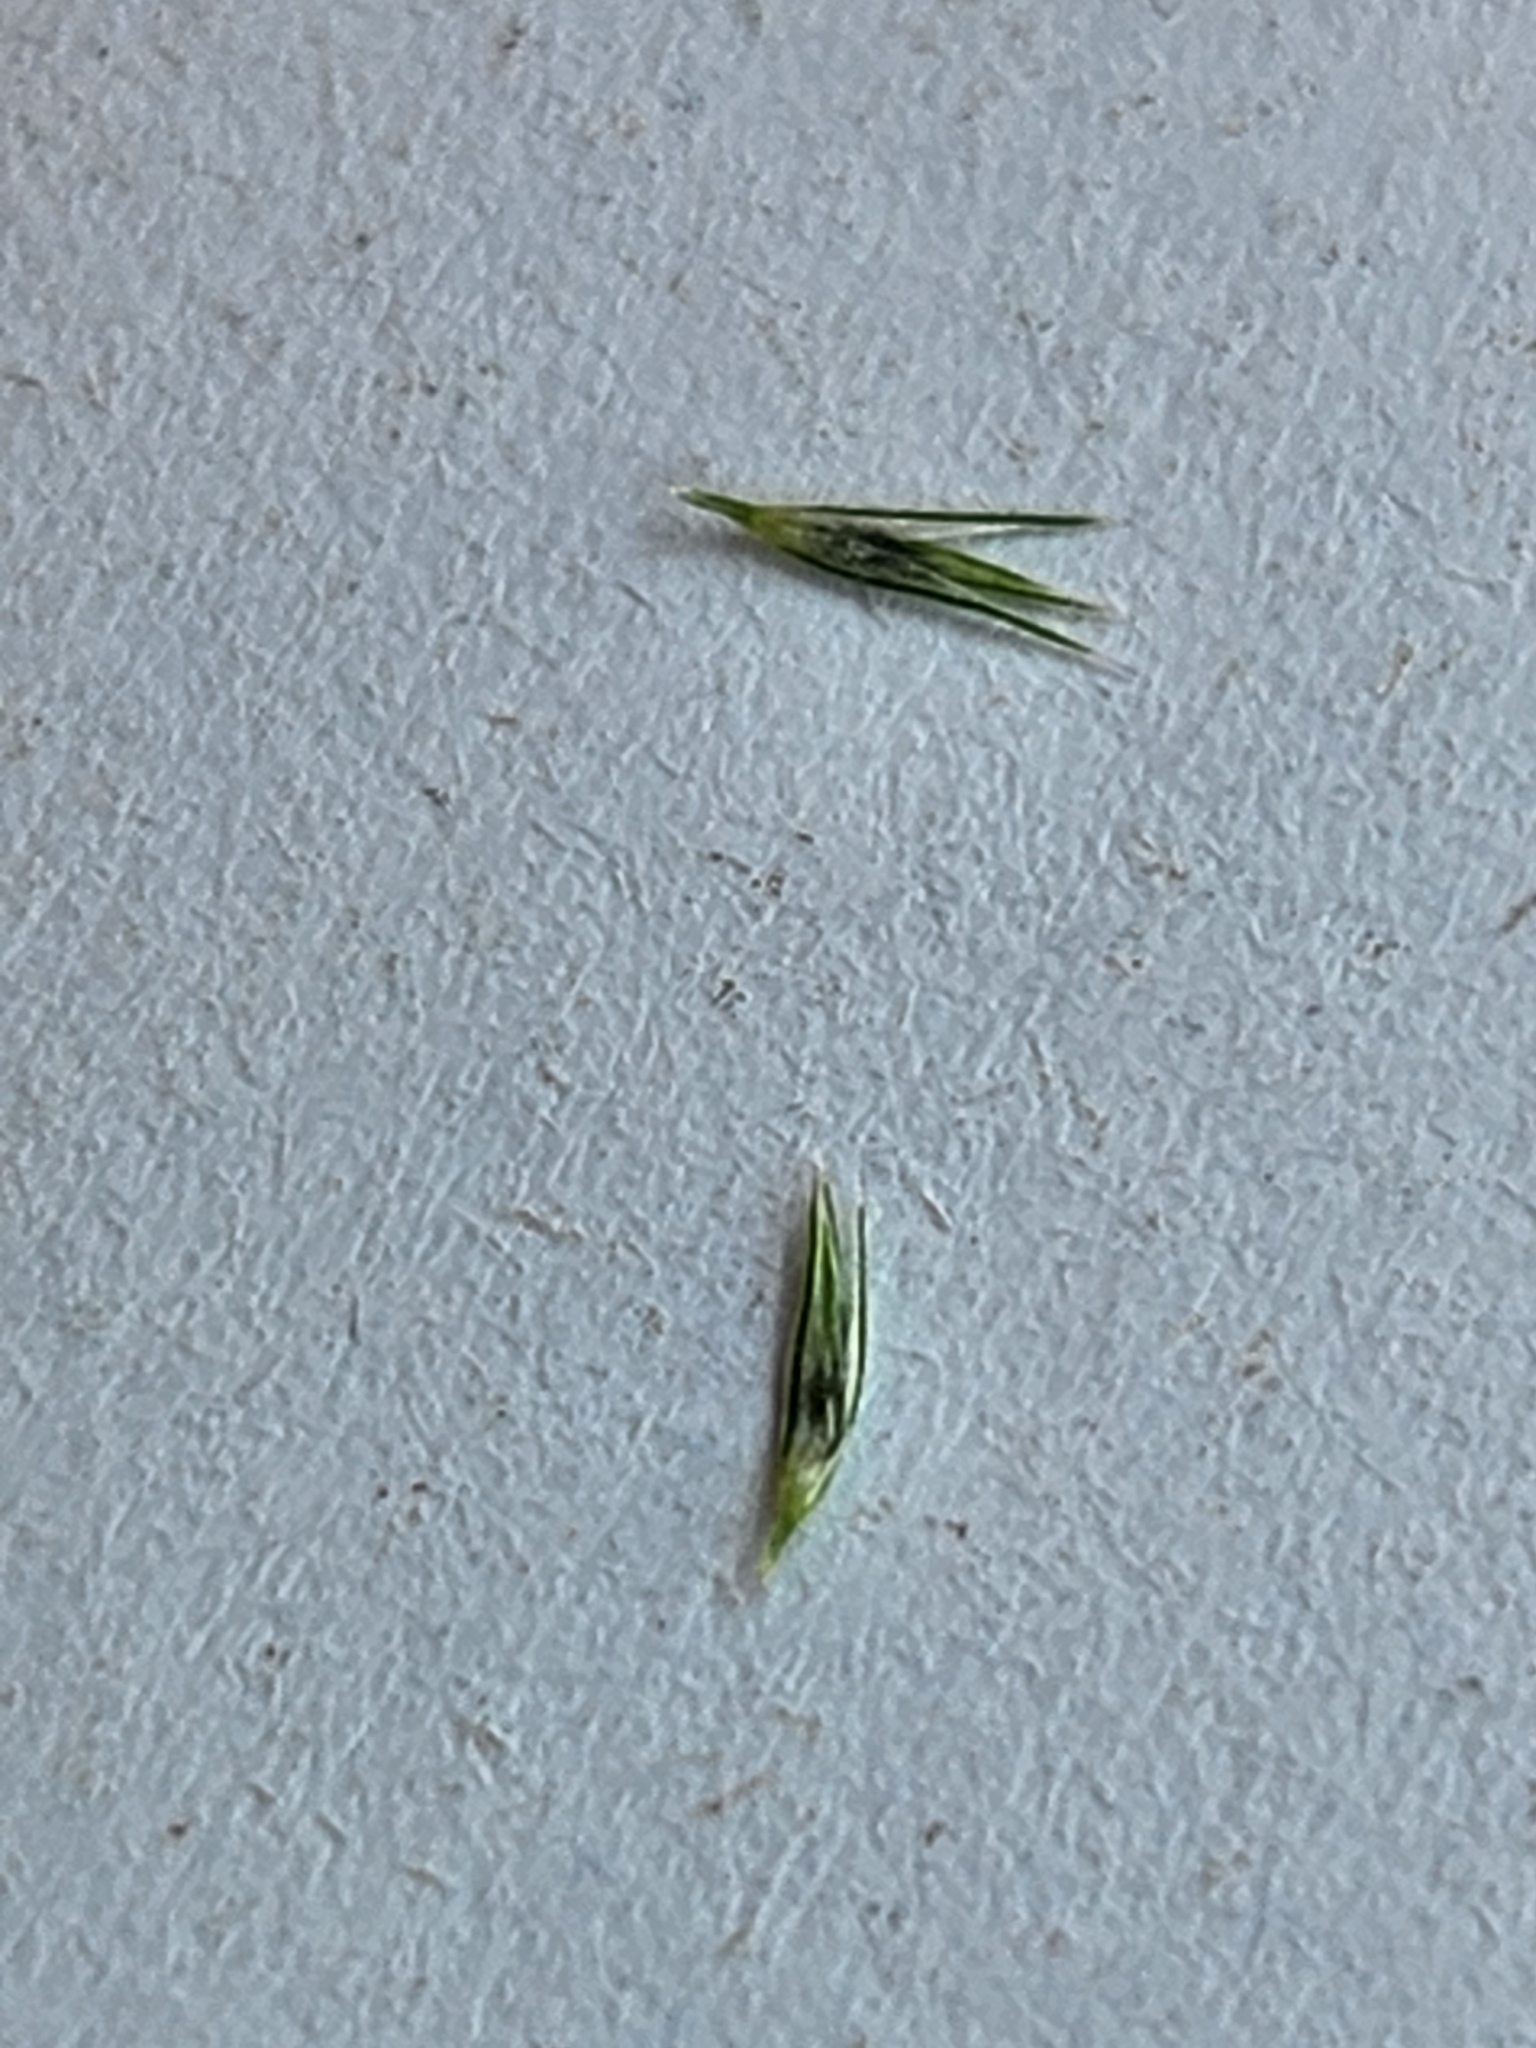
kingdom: Plantae
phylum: Tracheophyta
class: Liliopsida
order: Poales
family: Poaceae
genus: Muhlenbergia
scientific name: Muhlenbergia mexicana
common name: Mexican muhly
